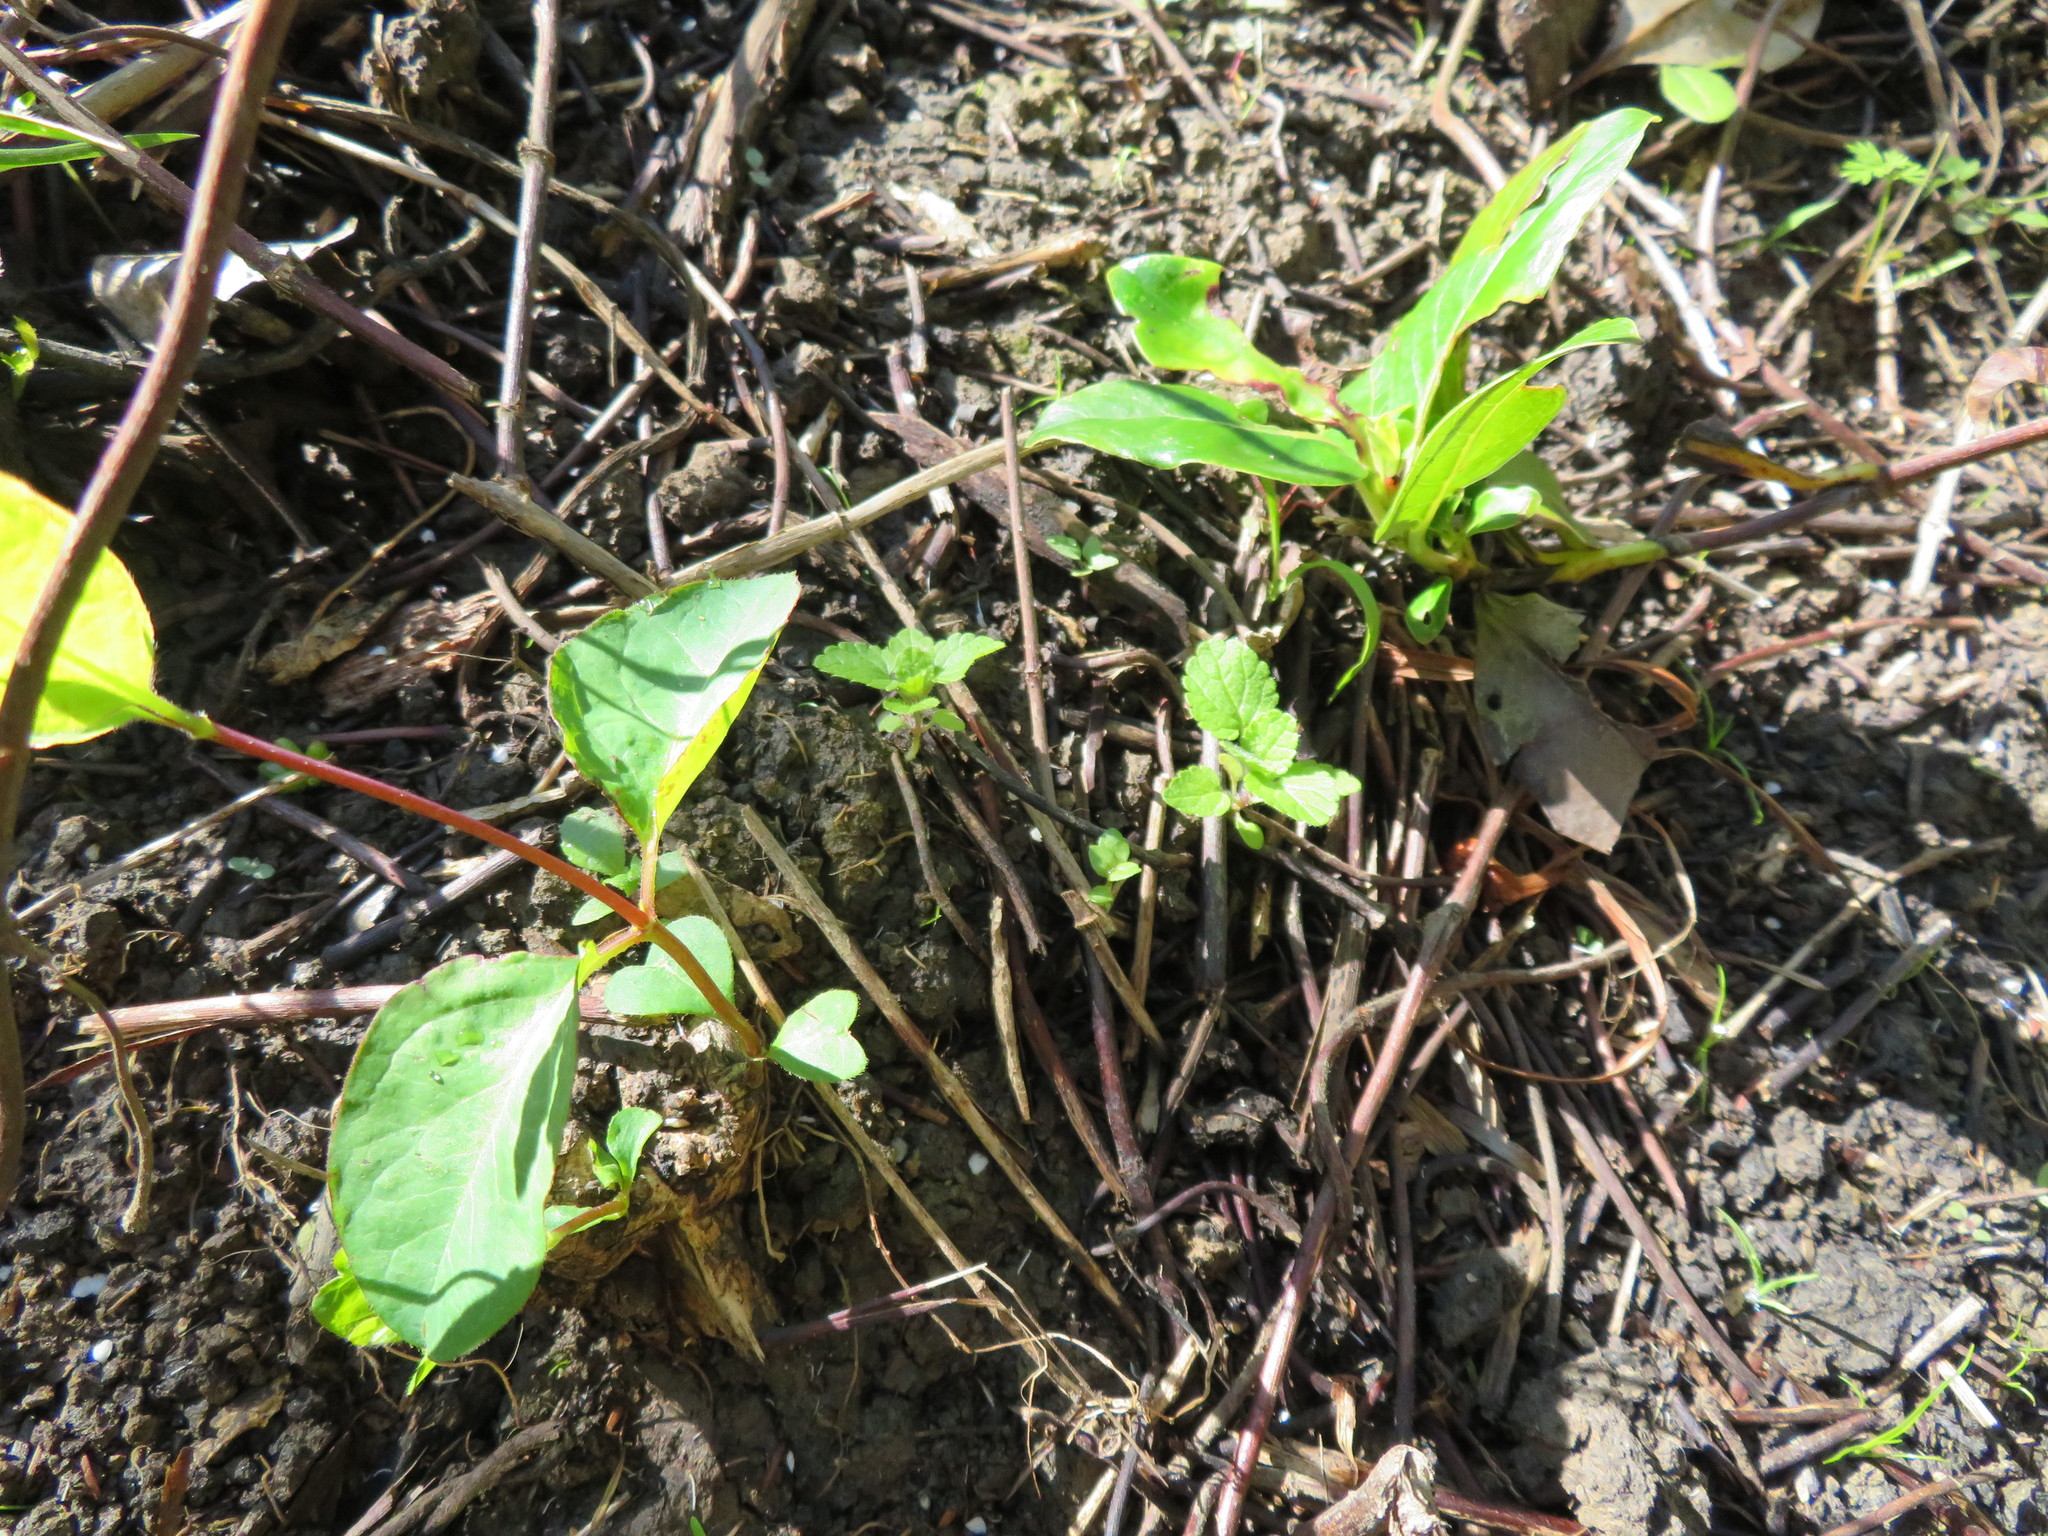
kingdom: Plantae
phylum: Tracheophyta
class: Magnoliopsida
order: Dipsacales
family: Caprifoliaceae
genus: Lonicera
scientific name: Lonicera japonica
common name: Japanese honeysuckle
